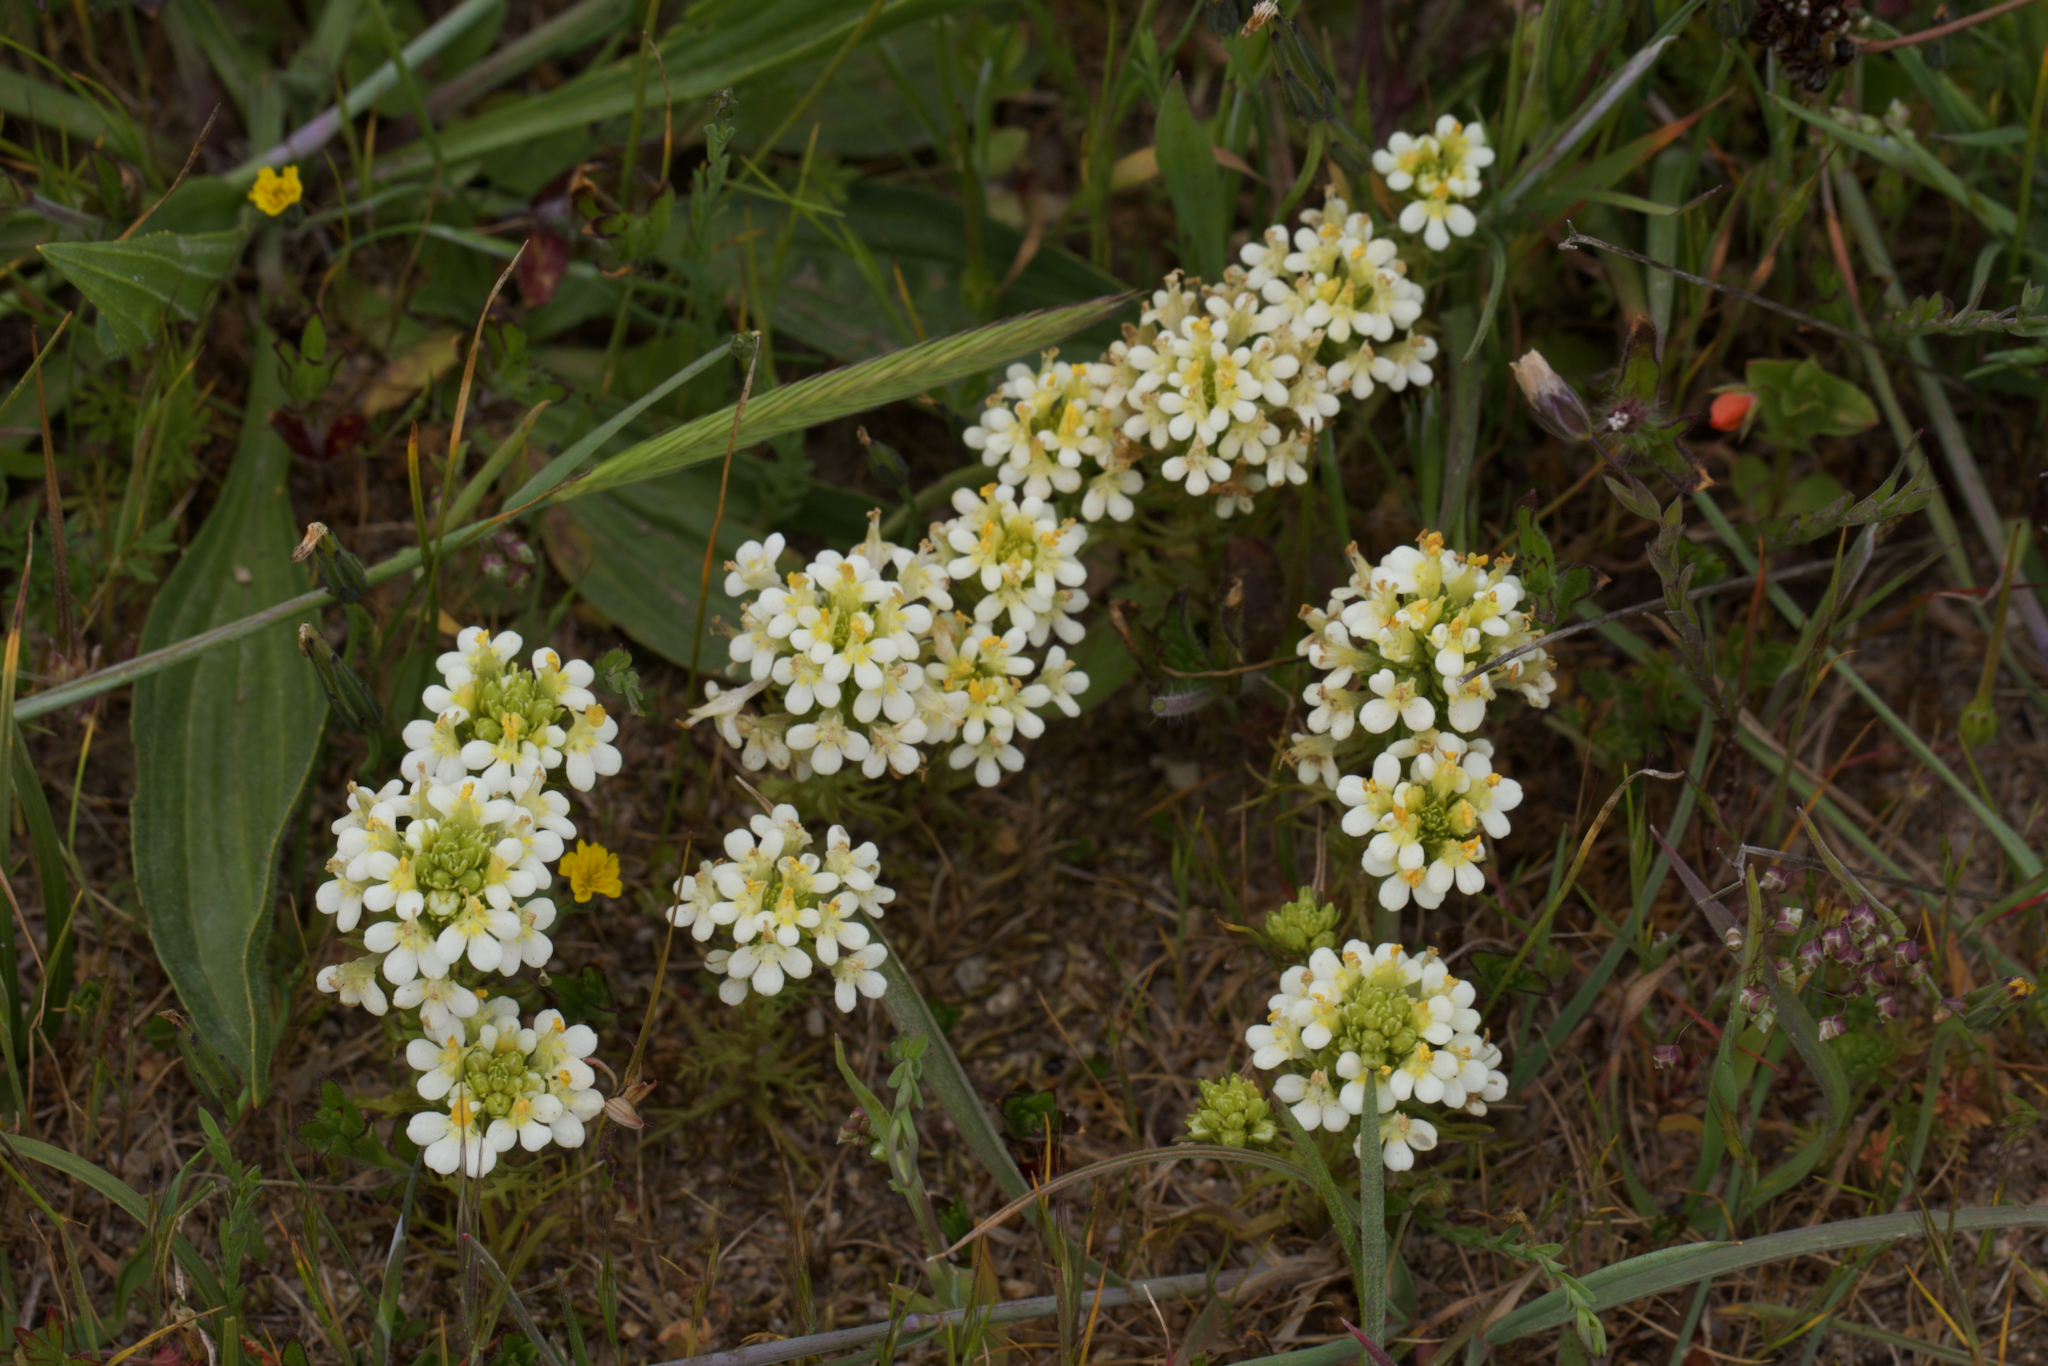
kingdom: Plantae
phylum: Tracheophyta
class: Magnoliopsida
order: Lamiales
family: Orobanchaceae
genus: Triphysaria
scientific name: Triphysaria floribunda
